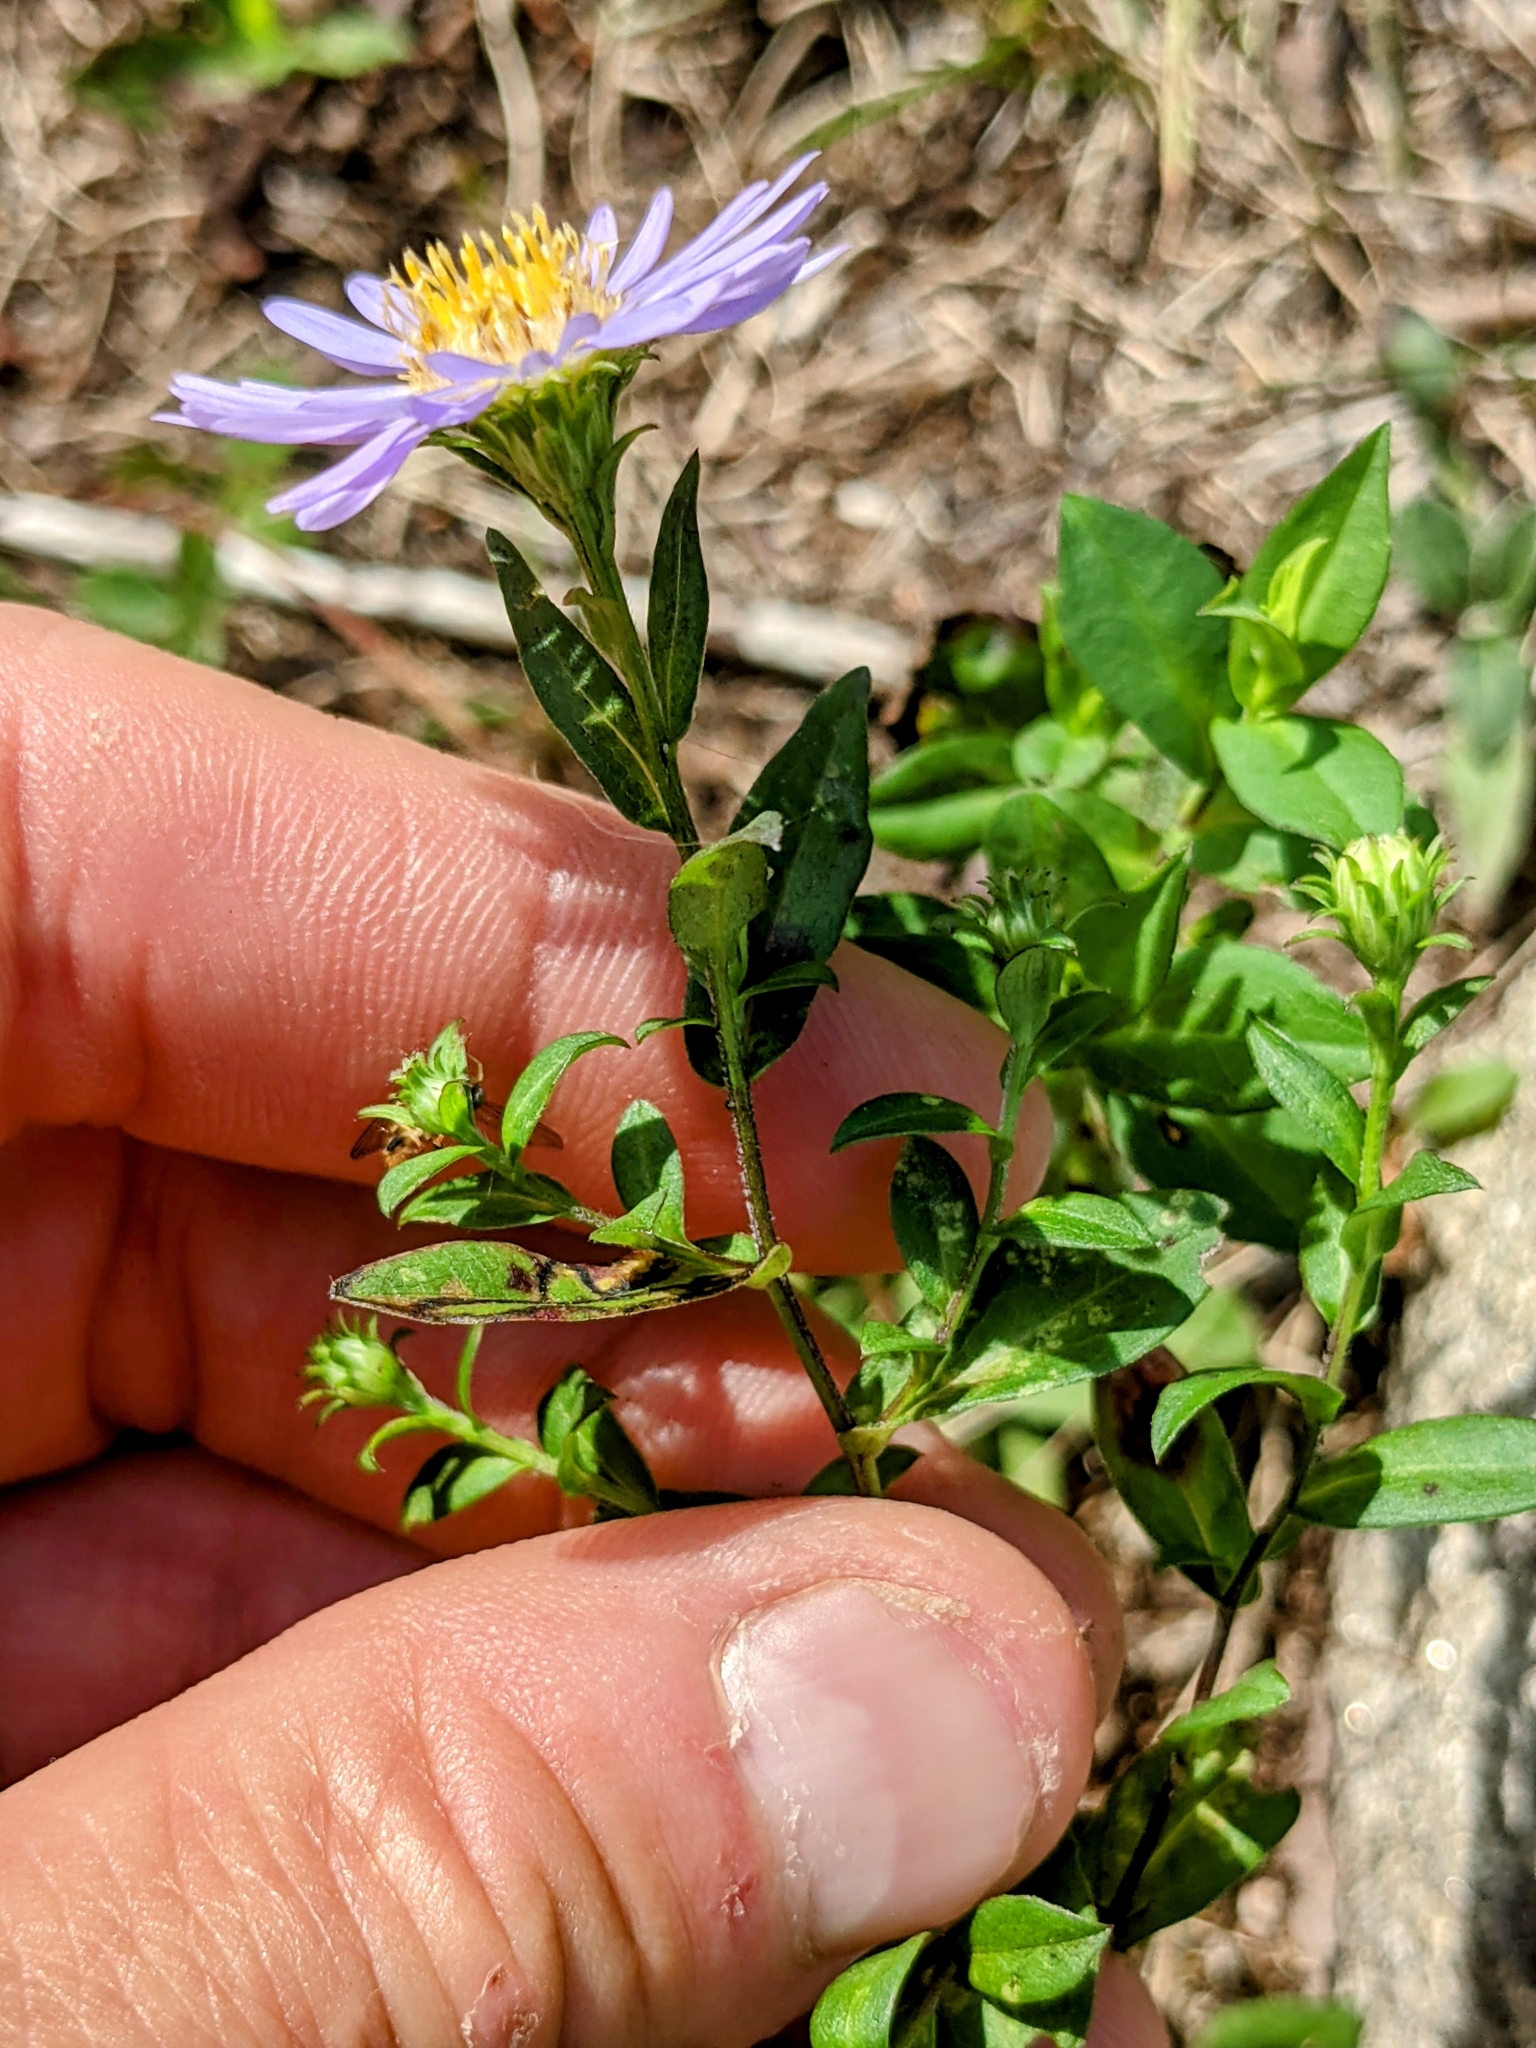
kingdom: Plantae
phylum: Tracheophyta
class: Magnoliopsida
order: Asterales
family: Asteraceae
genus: Symphyotrichum
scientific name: Symphyotrichum novi-belgii
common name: Michaelmas daisy
